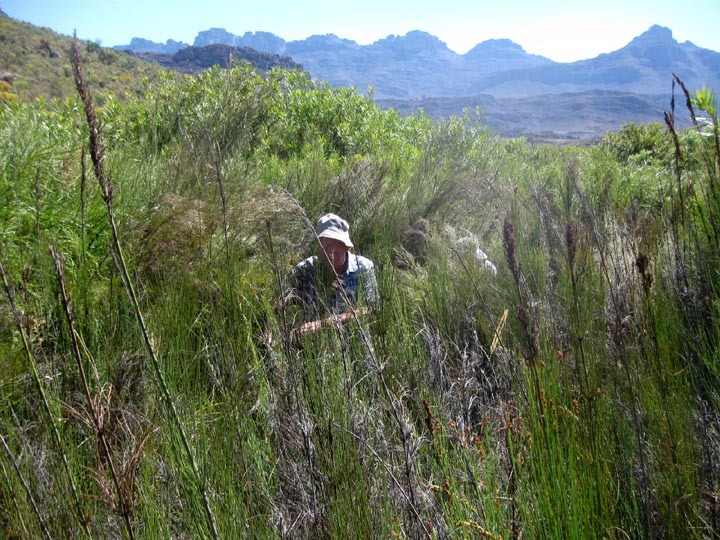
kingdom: Plantae
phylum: Tracheophyta
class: Liliopsida
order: Poales
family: Restionaceae
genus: Elegia
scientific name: Elegia capensis
